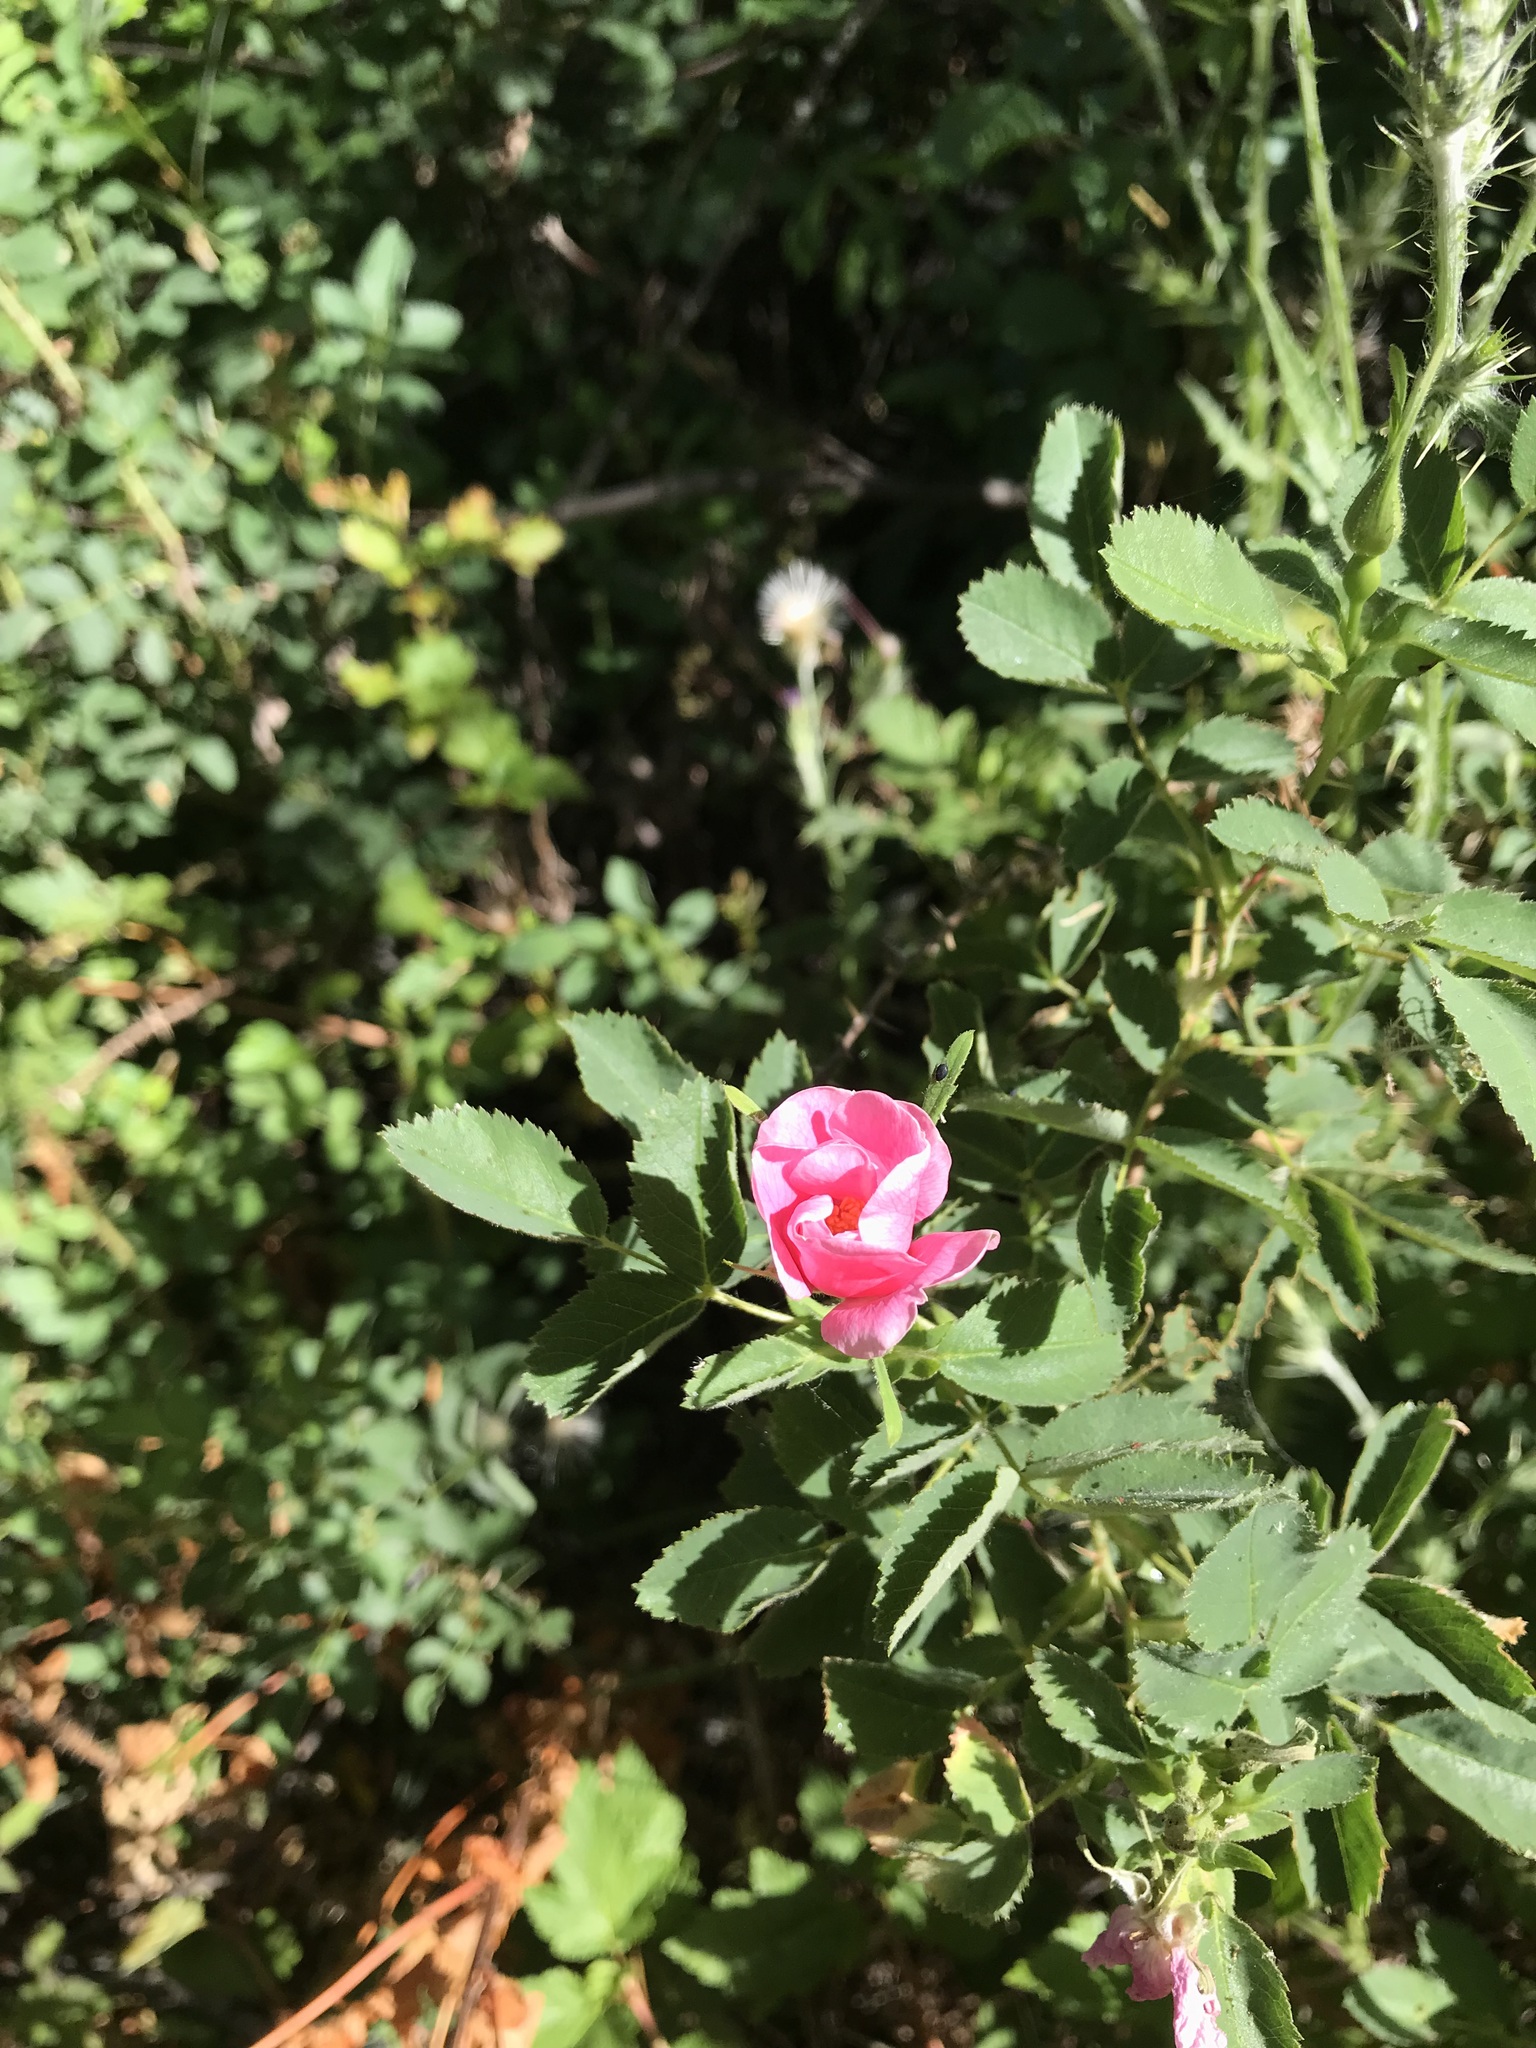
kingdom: Plantae
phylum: Tracheophyta
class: Magnoliopsida
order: Rosales
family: Rosaceae
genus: Rosa
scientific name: Rosa californica
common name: California rose
